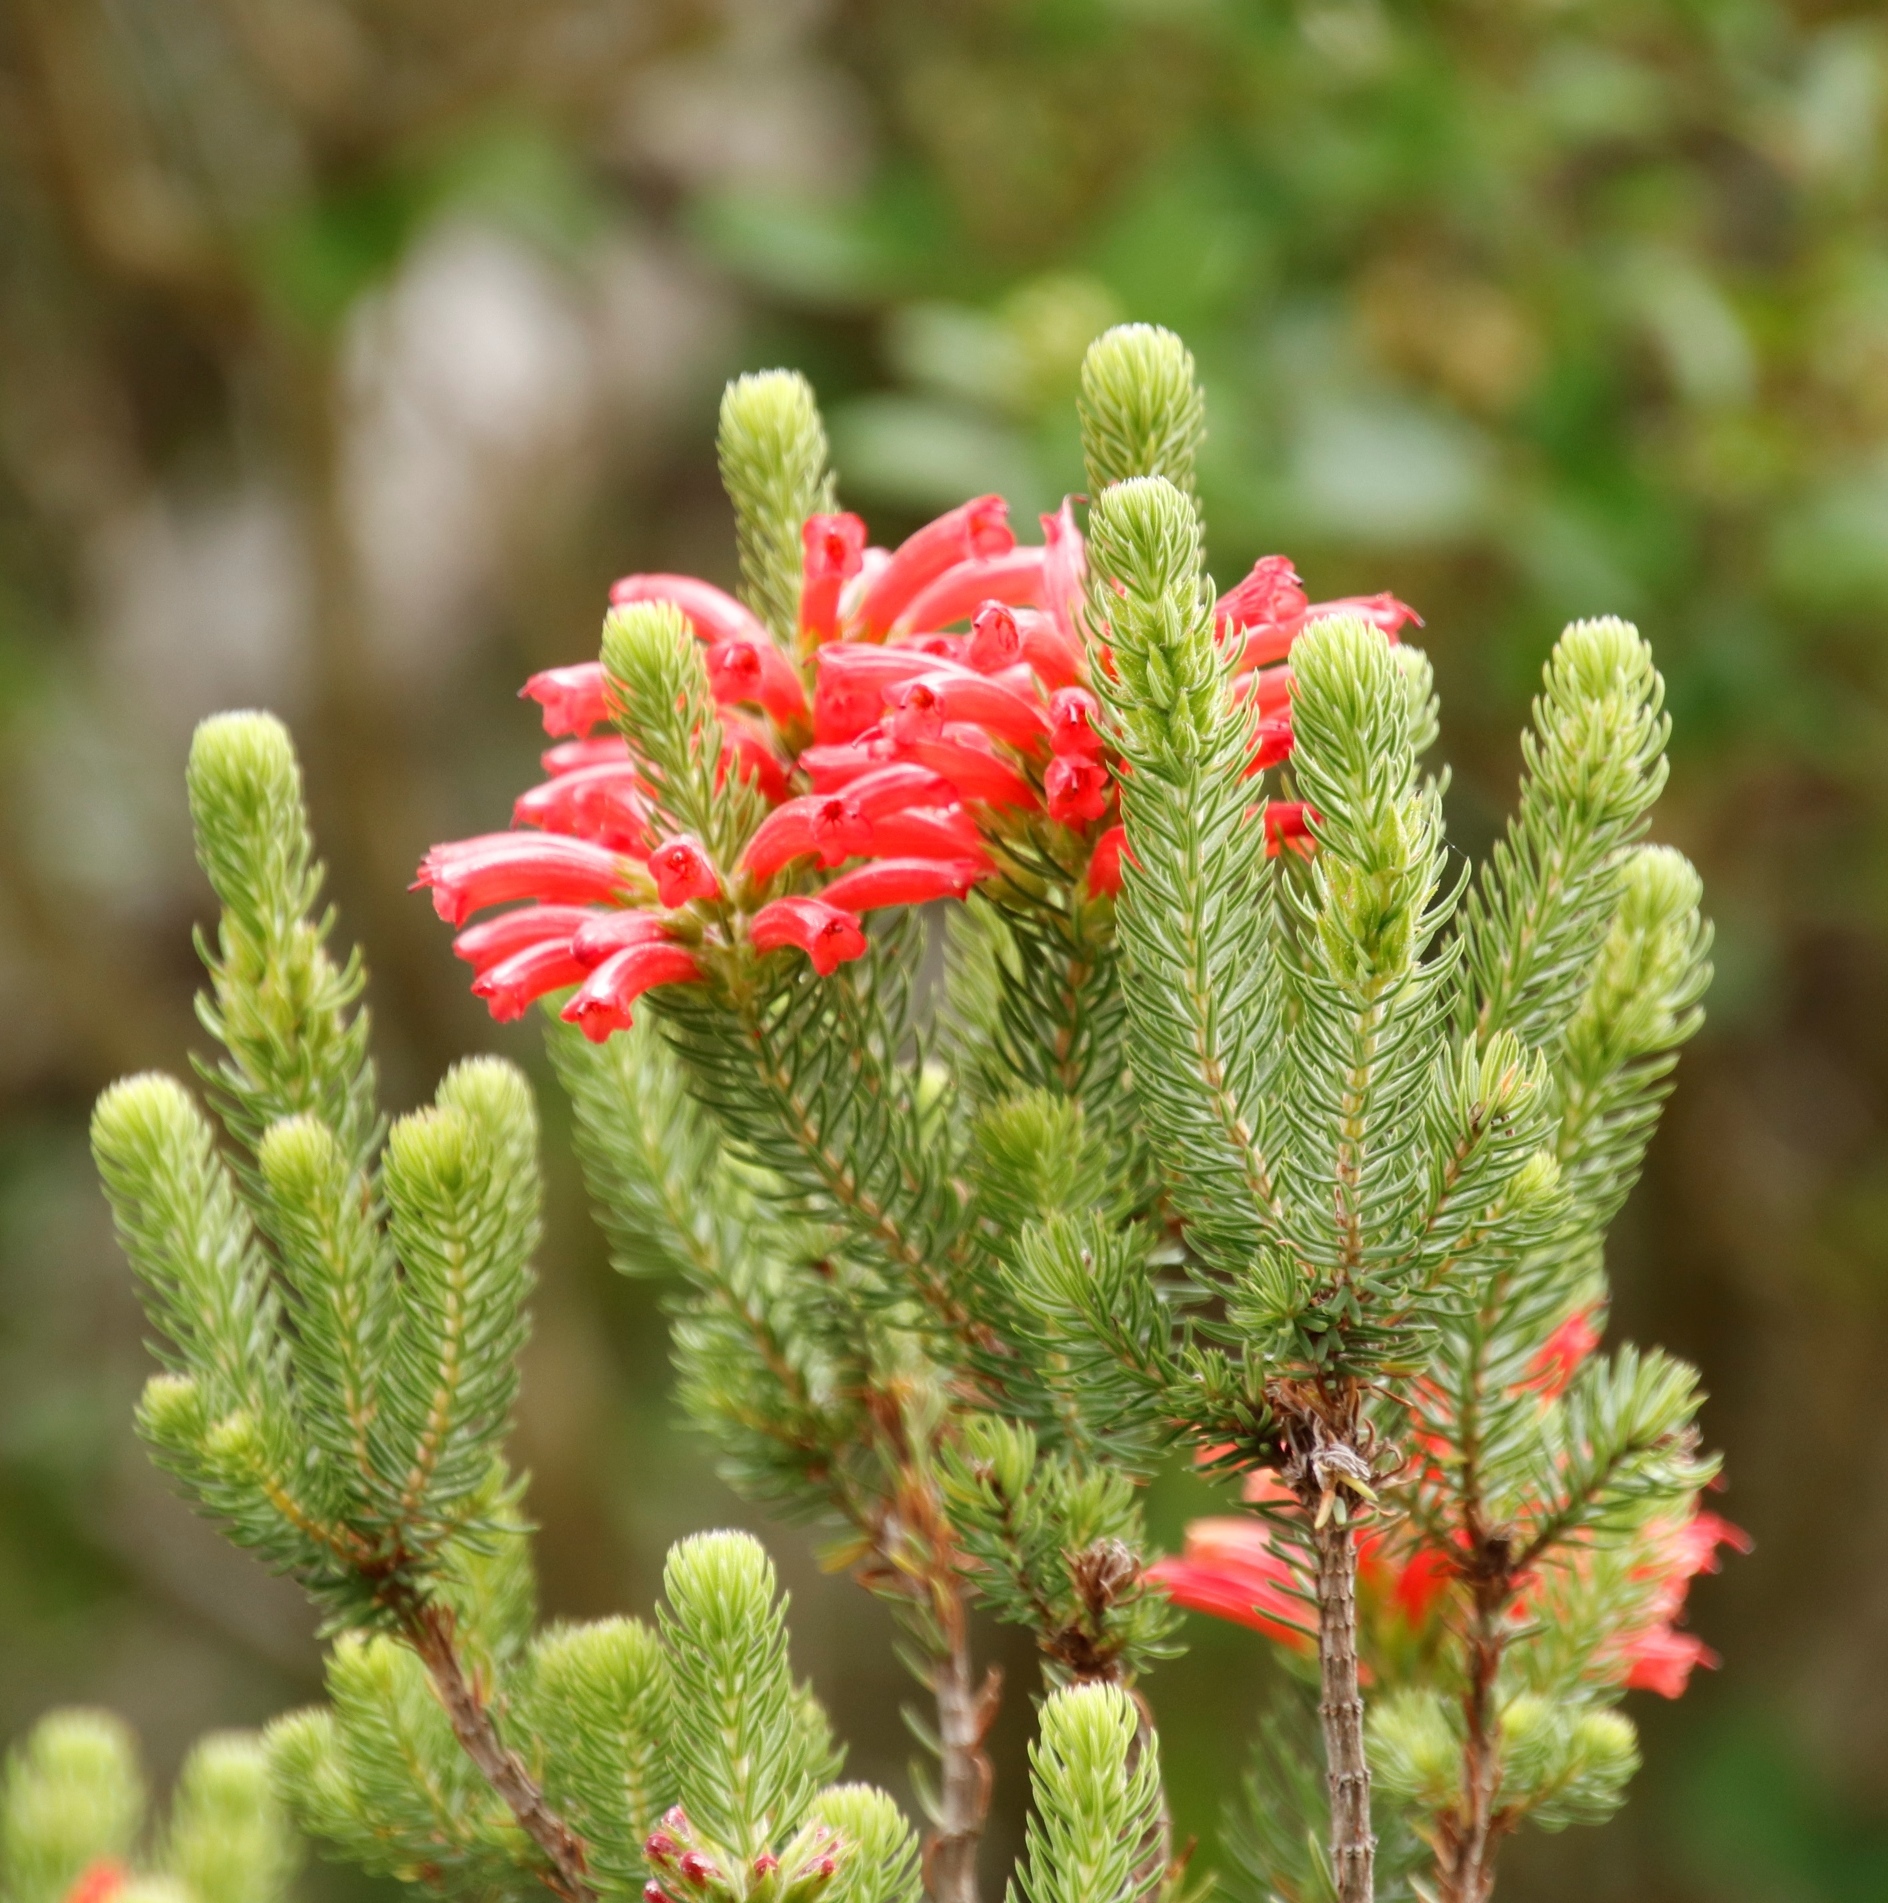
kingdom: Plantae
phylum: Tracheophyta
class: Magnoliopsida
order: Ericales
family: Ericaceae
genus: Erica
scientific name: Erica abietina
